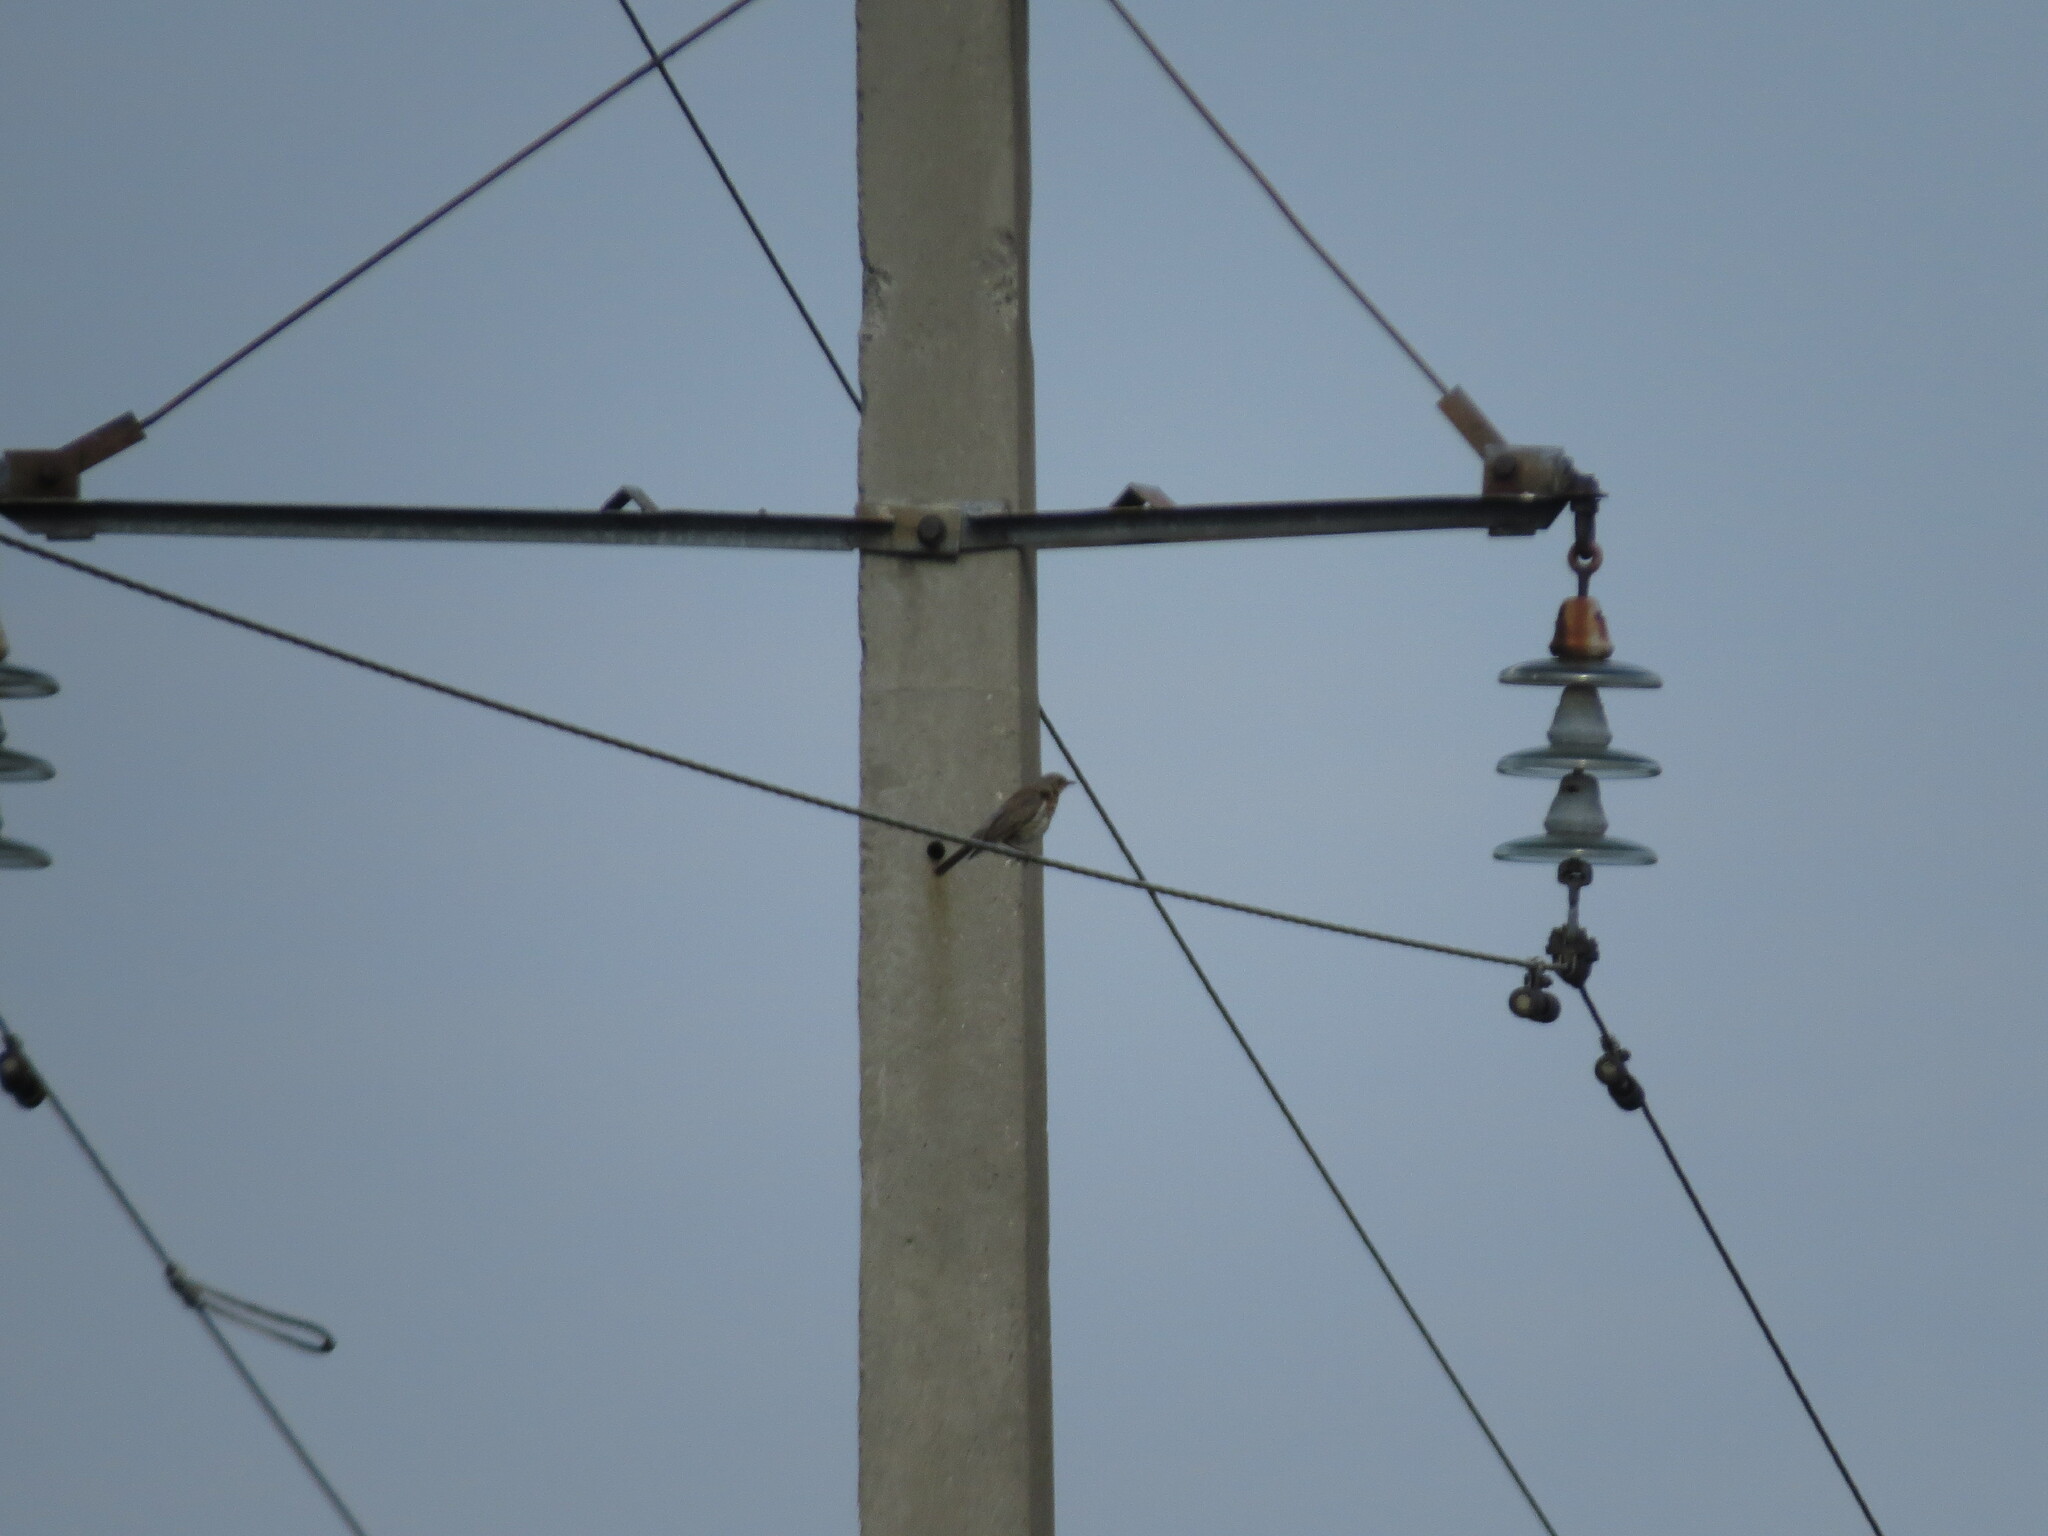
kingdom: Animalia
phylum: Chordata
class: Aves
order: Passeriformes
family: Turdidae
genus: Turdus
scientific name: Turdus pilaris
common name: Fieldfare
